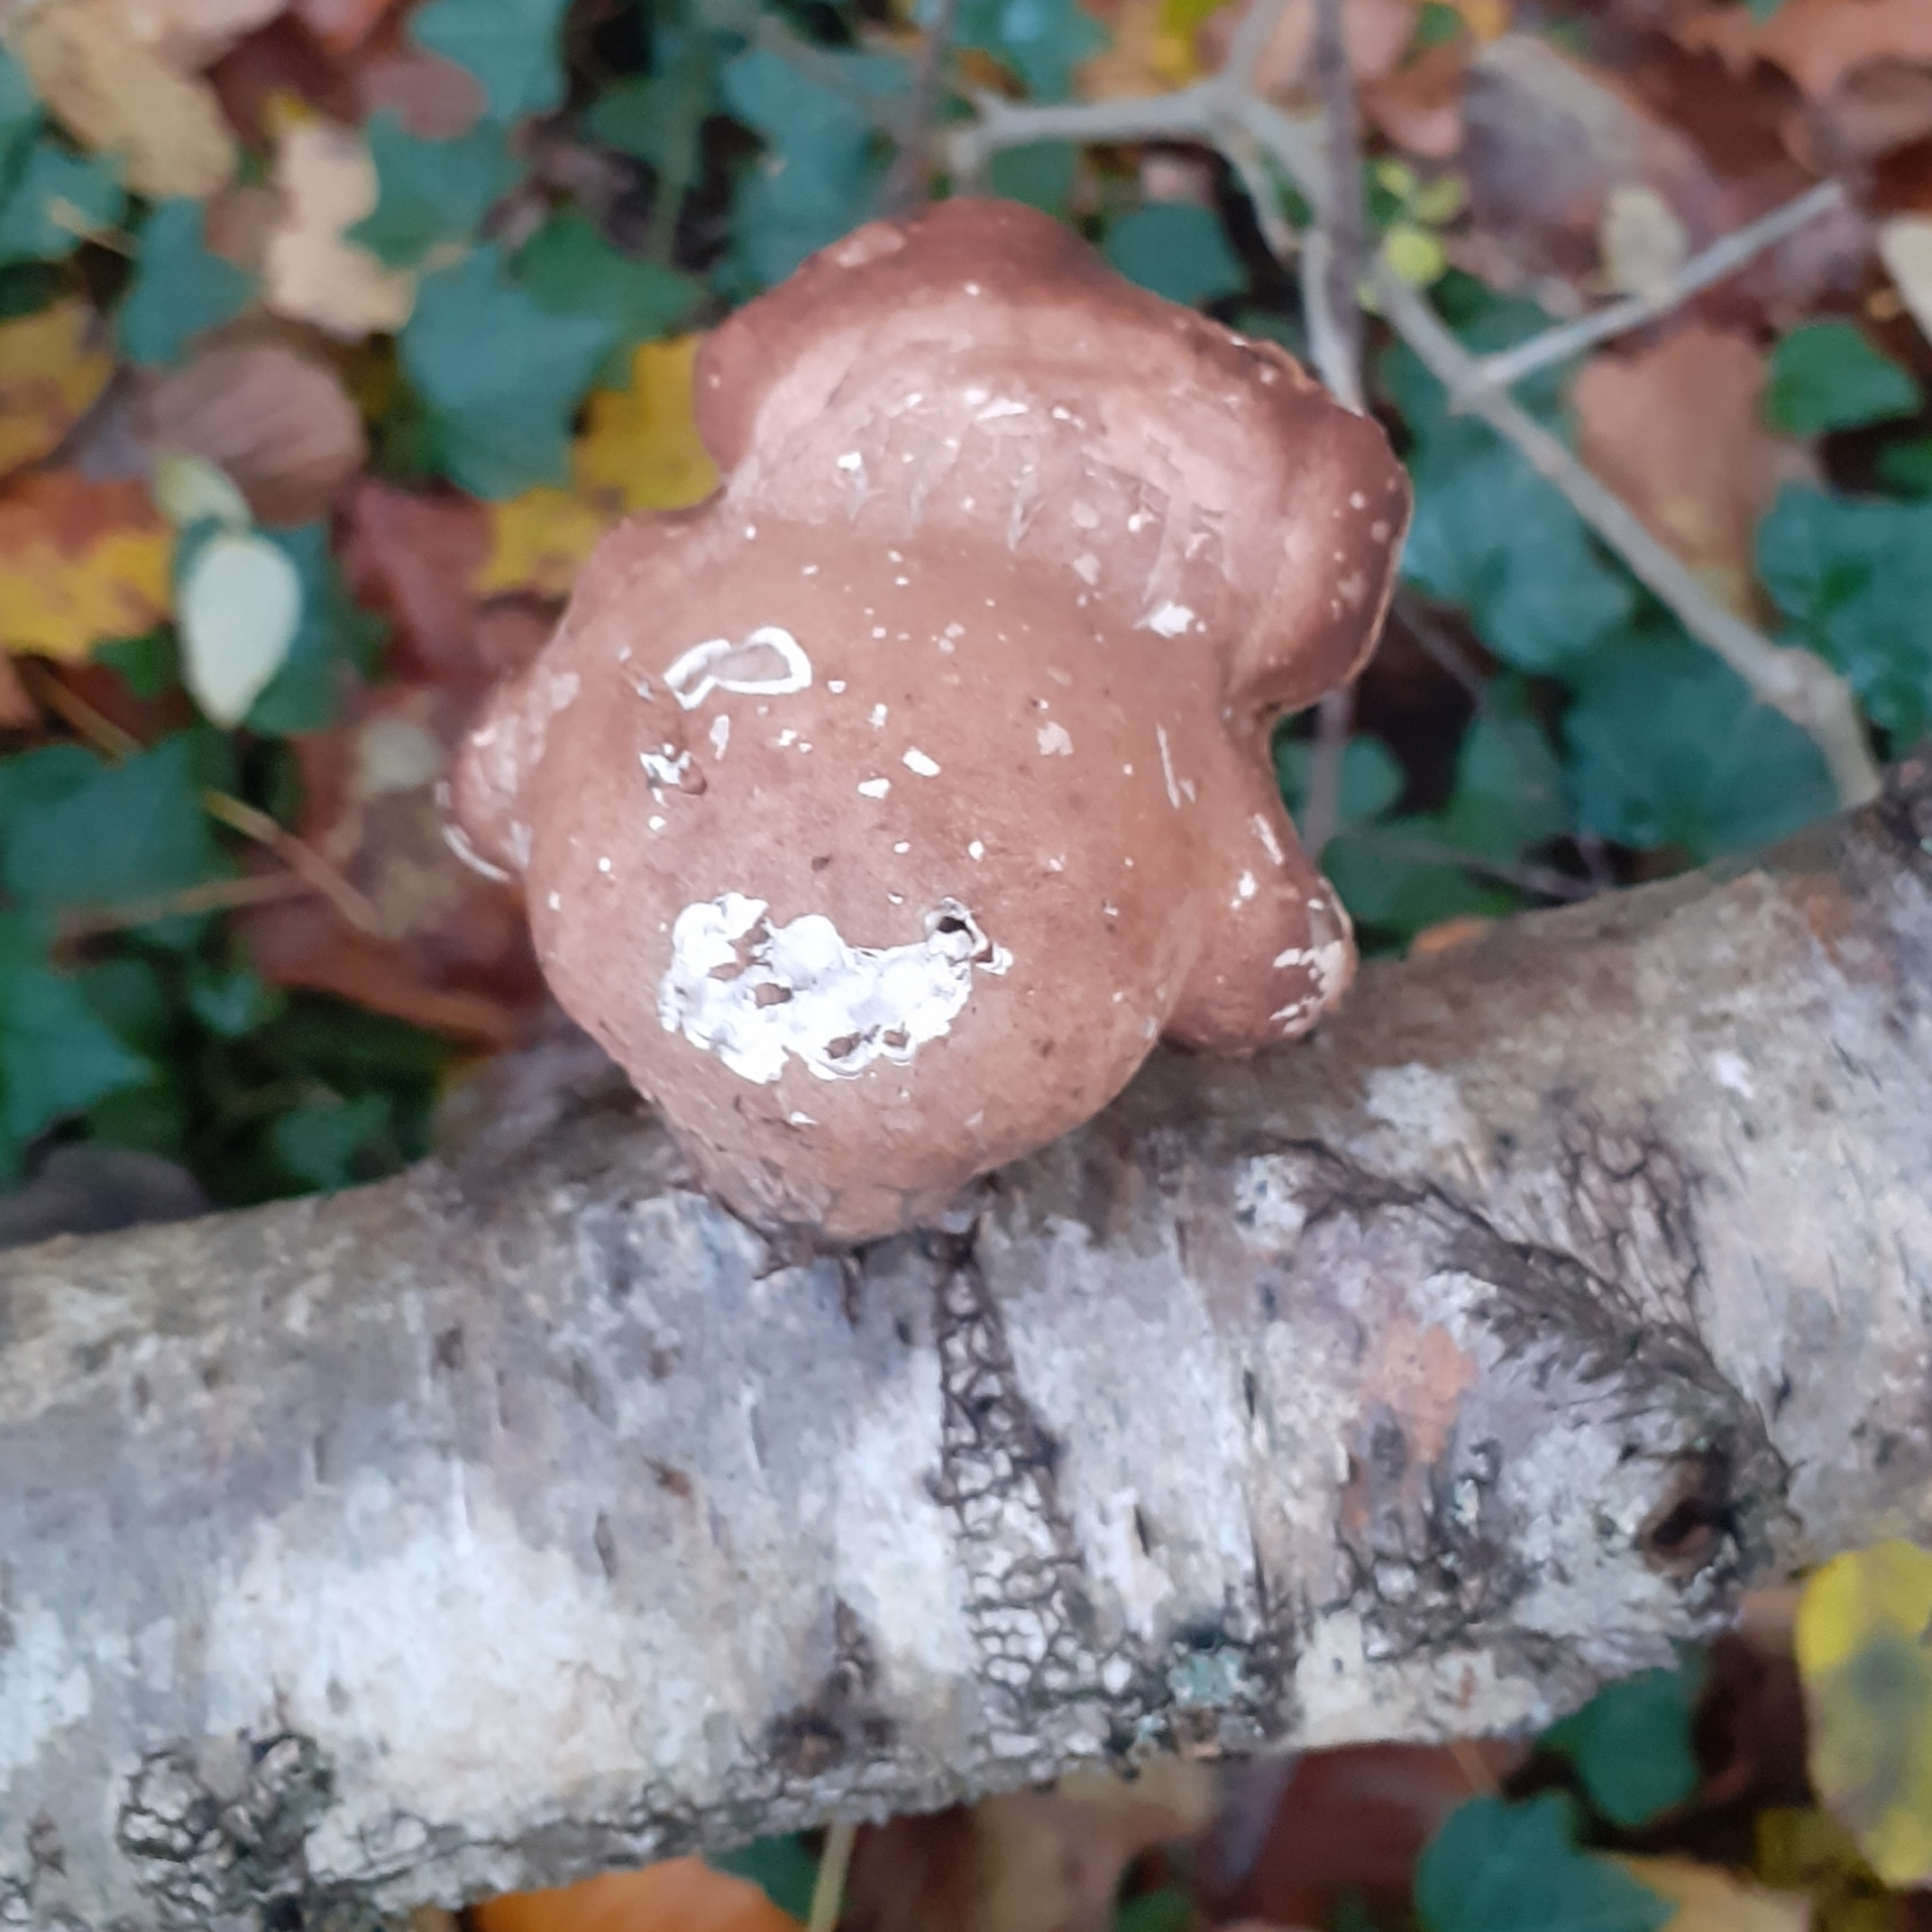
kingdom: Fungi
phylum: Basidiomycota
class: Agaricomycetes
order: Polyporales
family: Fomitopsidaceae
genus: Fomitopsis
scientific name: Fomitopsis betulina
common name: Birch polypore
